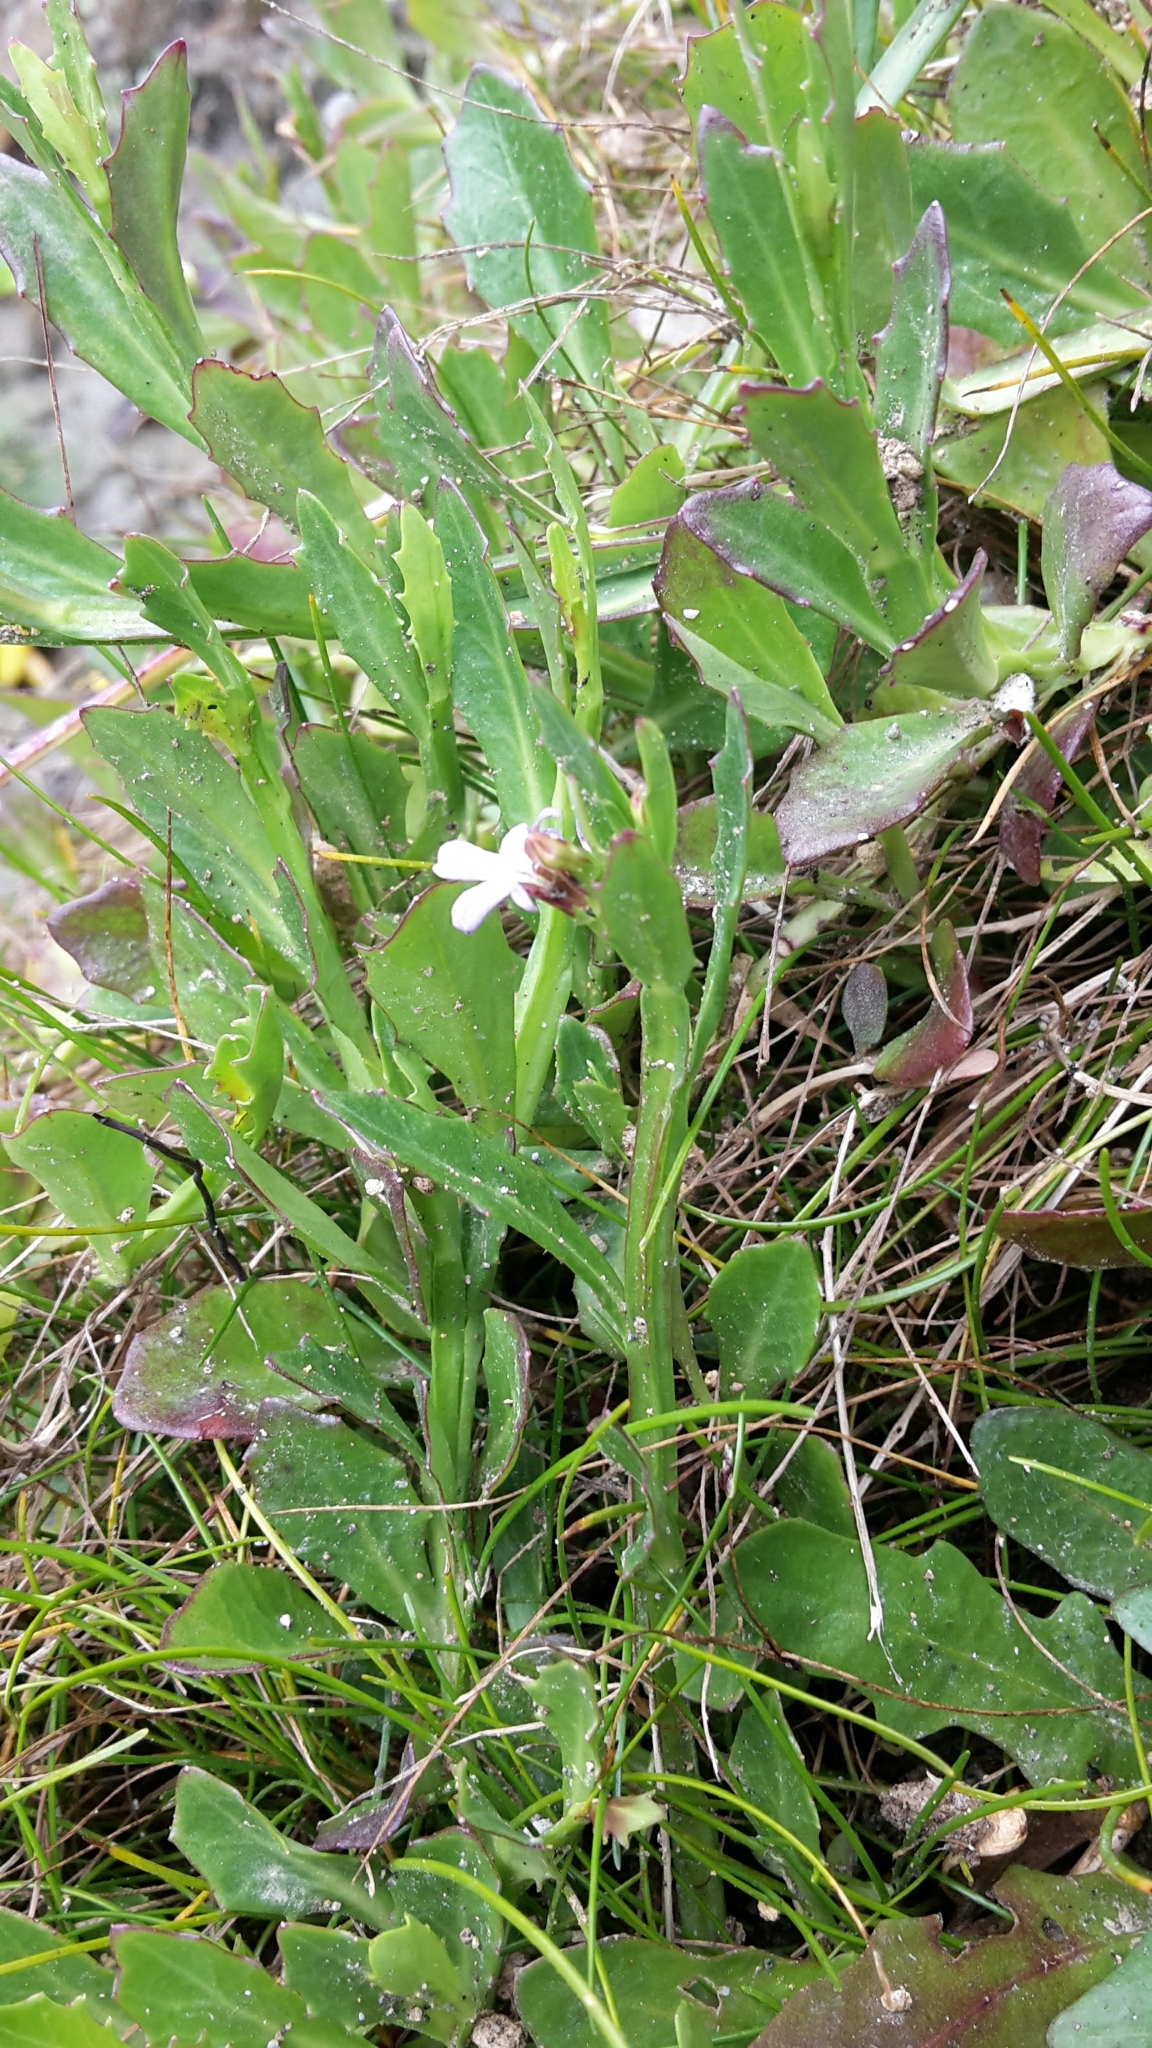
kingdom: Plantae
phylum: Tracheophyta
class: Magnoliopsida
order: Asterales
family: Campanulaceae
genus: Lobelia
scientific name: Lobelia anceps
